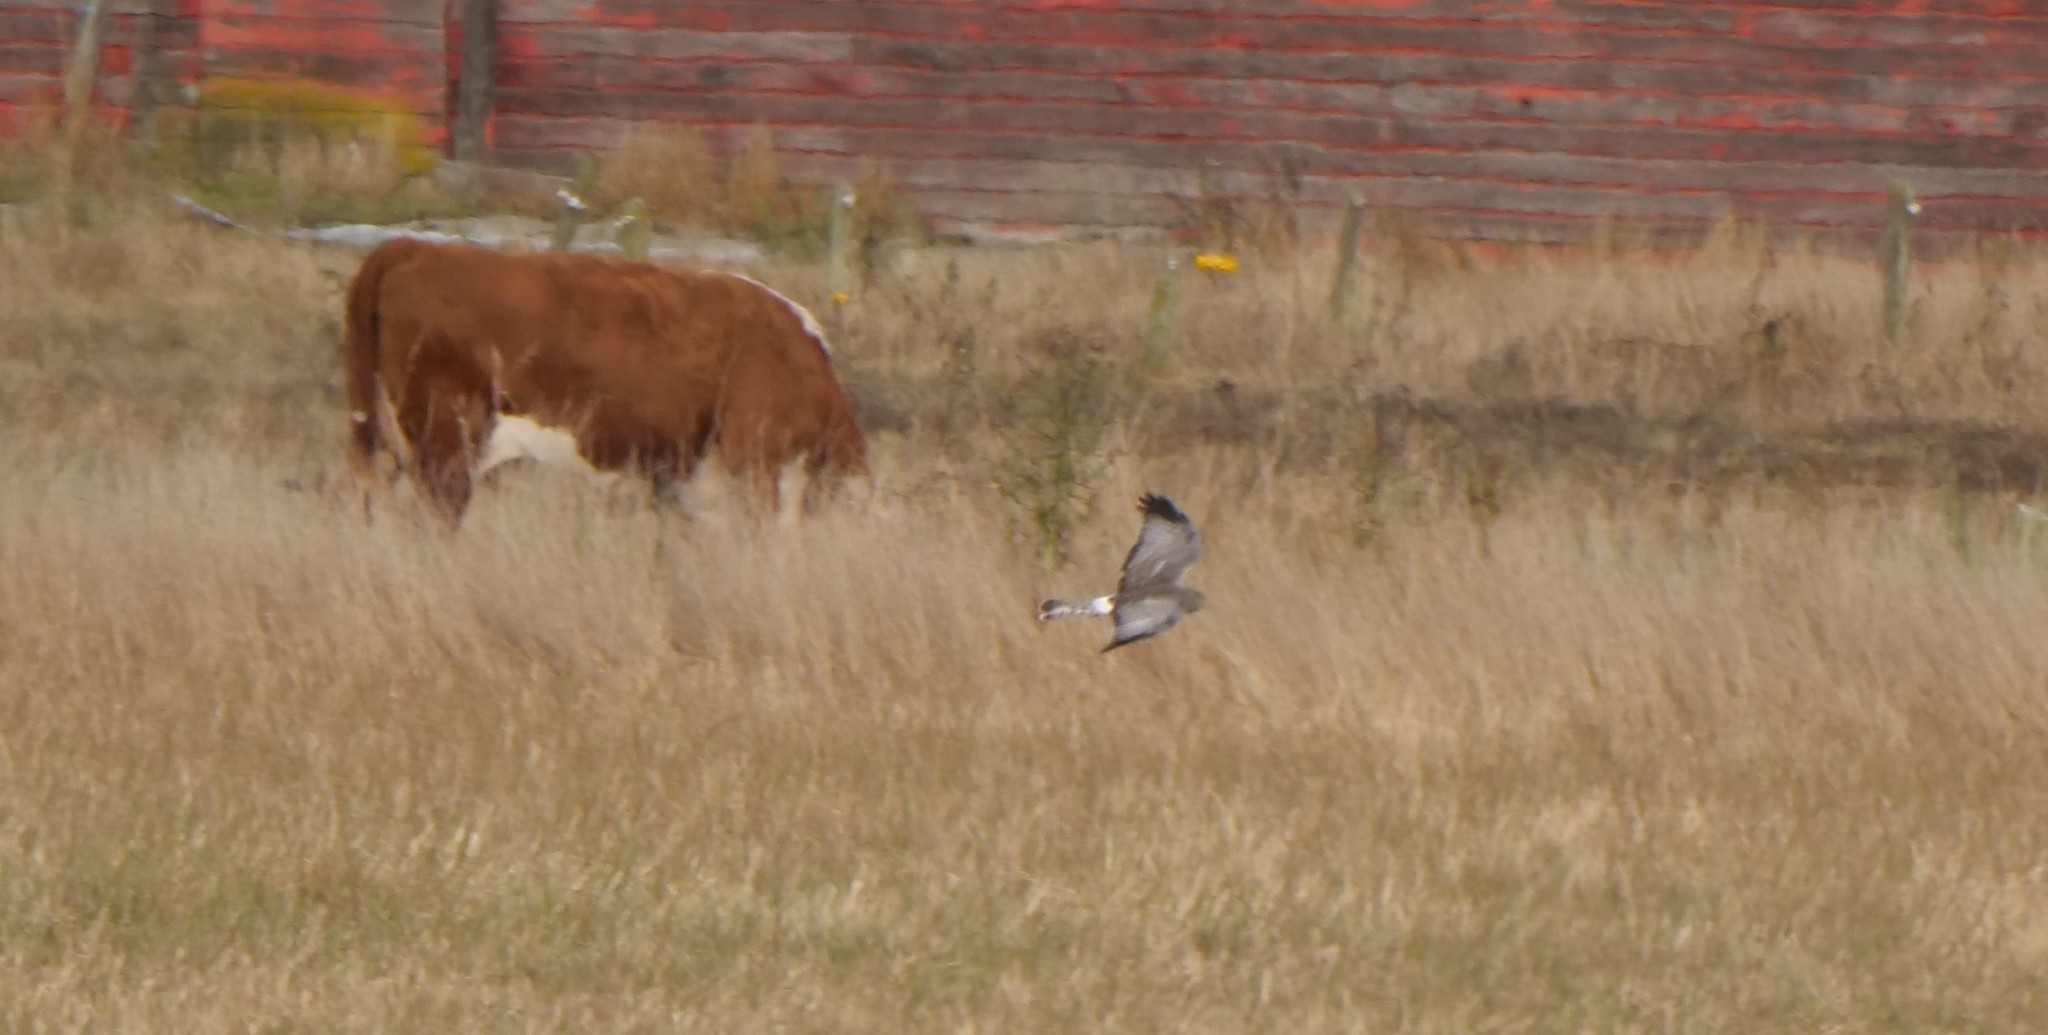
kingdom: Animalia
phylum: Chordata
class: Aves
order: Accipitriformes
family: Accipitridae
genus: Circus
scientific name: Circus cyaneus
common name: Hen harrier
